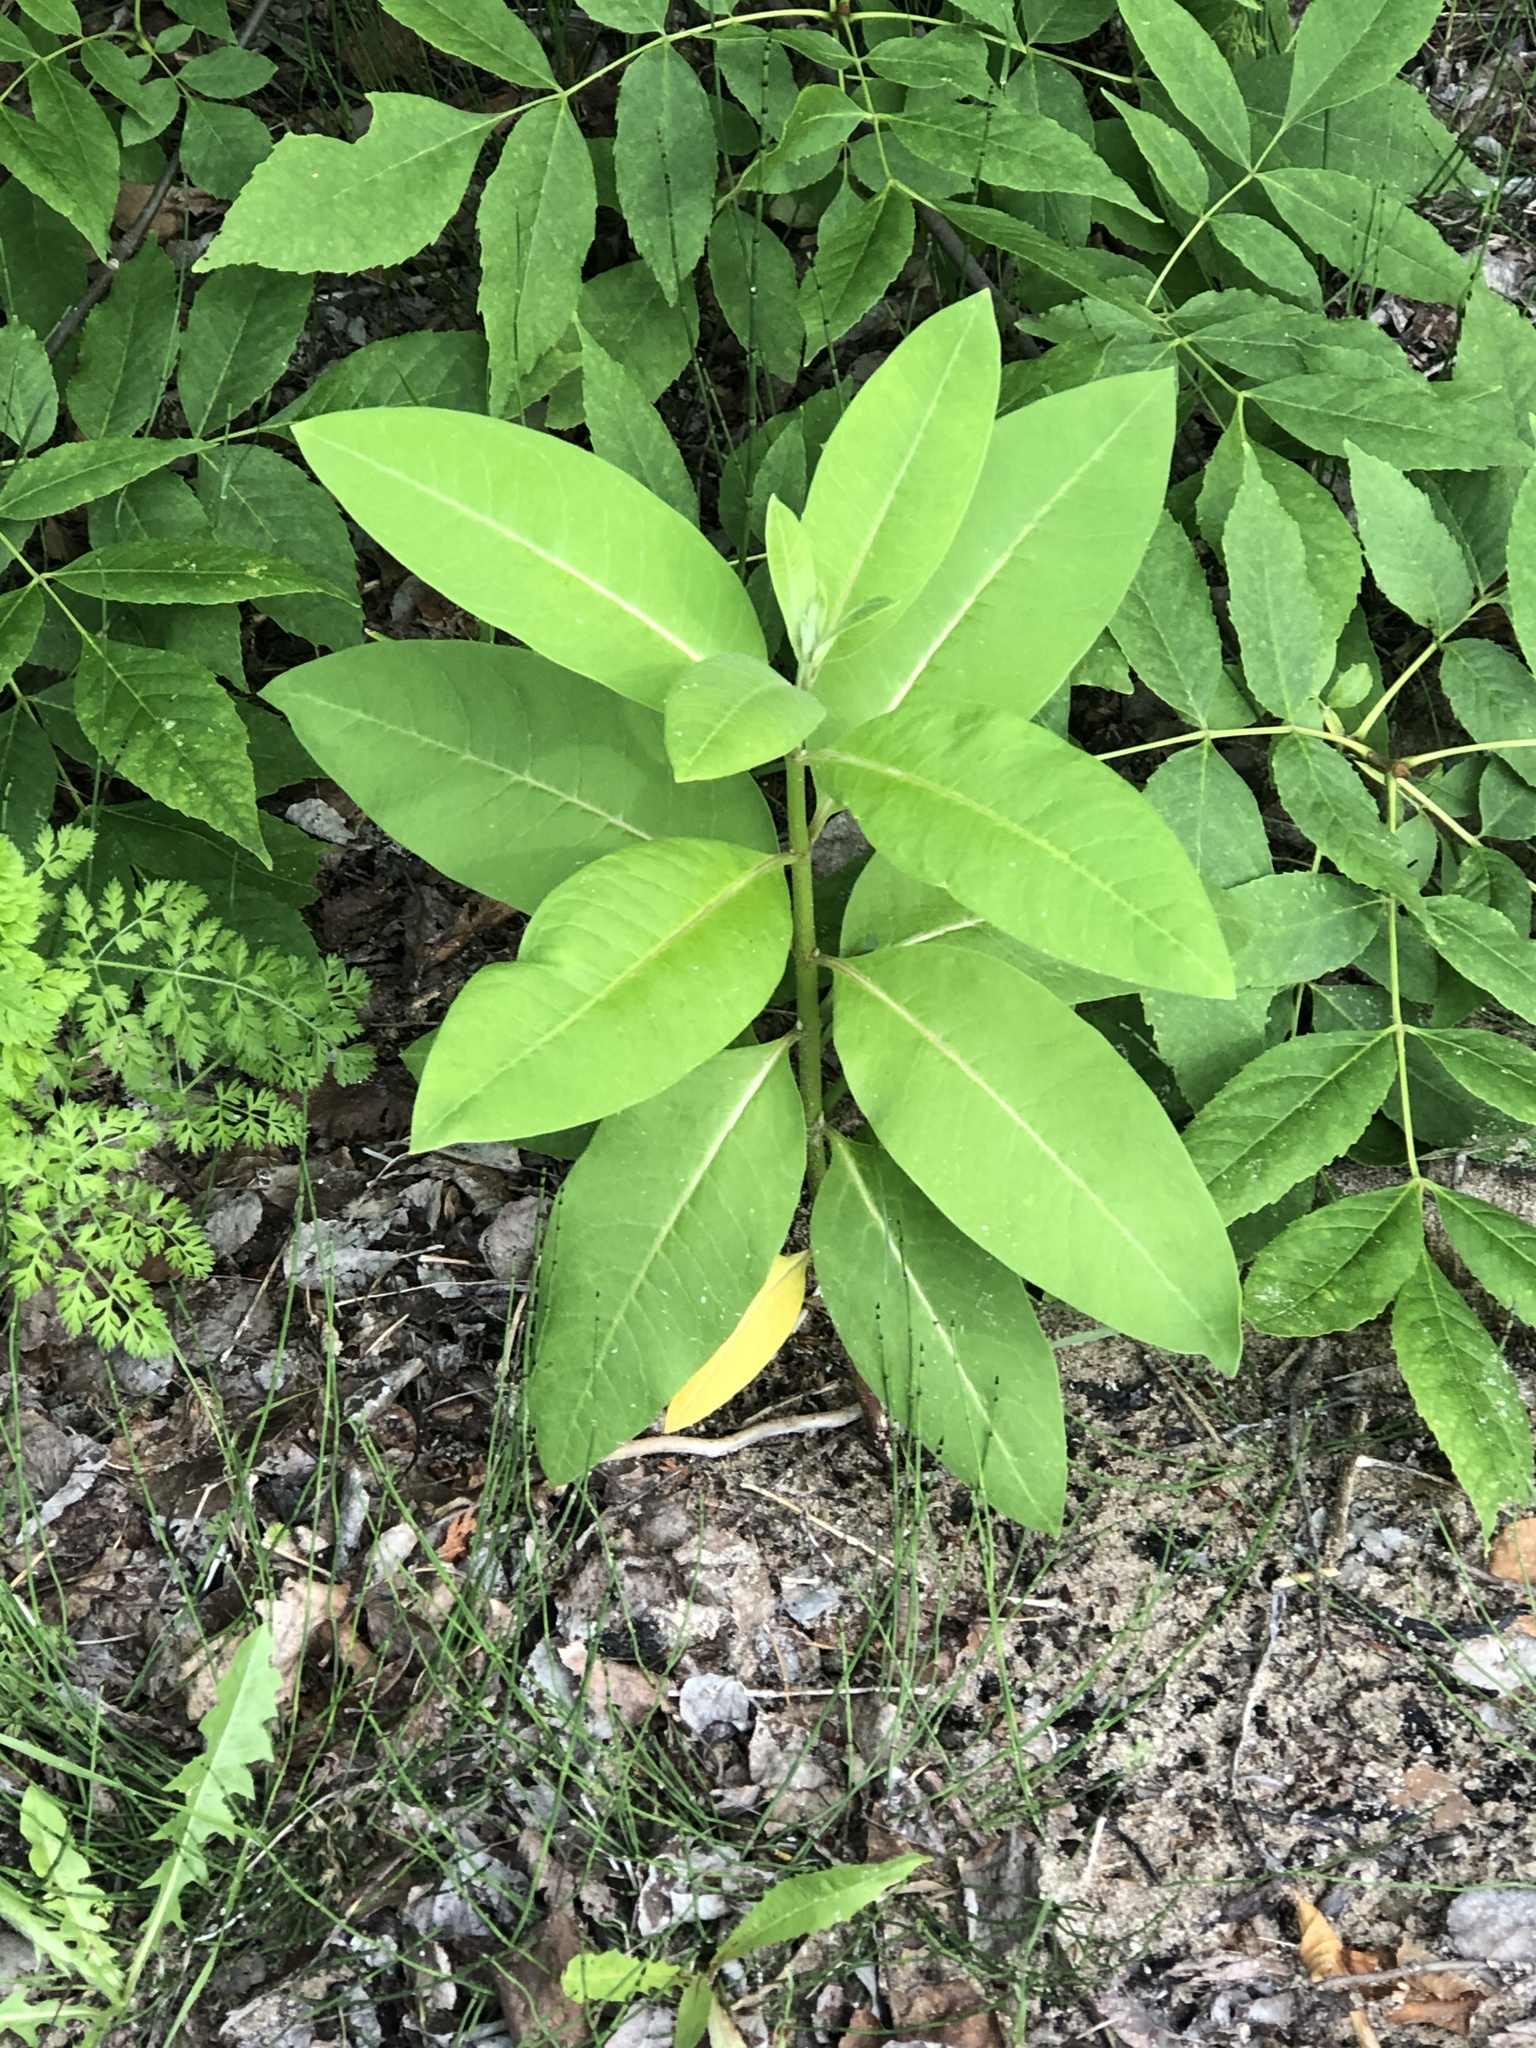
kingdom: Plantae
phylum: Tracheophyta
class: Magnoliopsida
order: Gentianales
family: Apocynaceae
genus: Asclepias
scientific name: Asclepias syriaca
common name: Common milkweed
